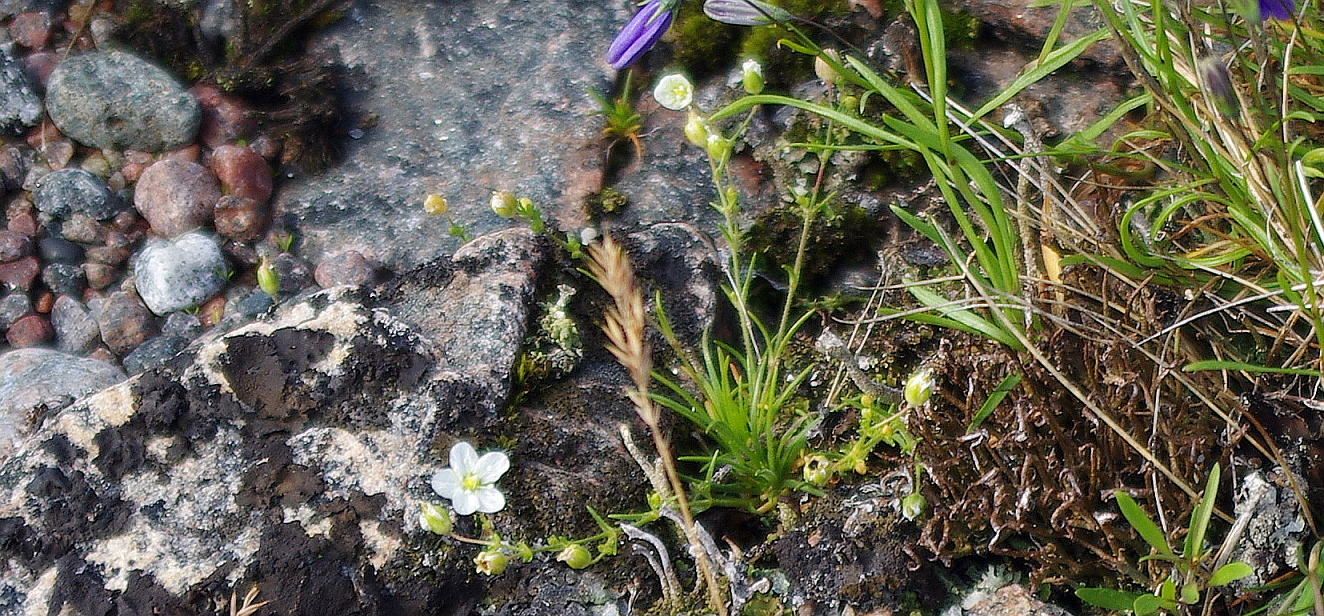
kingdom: Plantae
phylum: Tracheophyta
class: Magnoliopsida
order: Caryophyllales
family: Caryophyllaceae
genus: Sagina
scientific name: Sagina nodosa
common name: Knotted pearlwort
